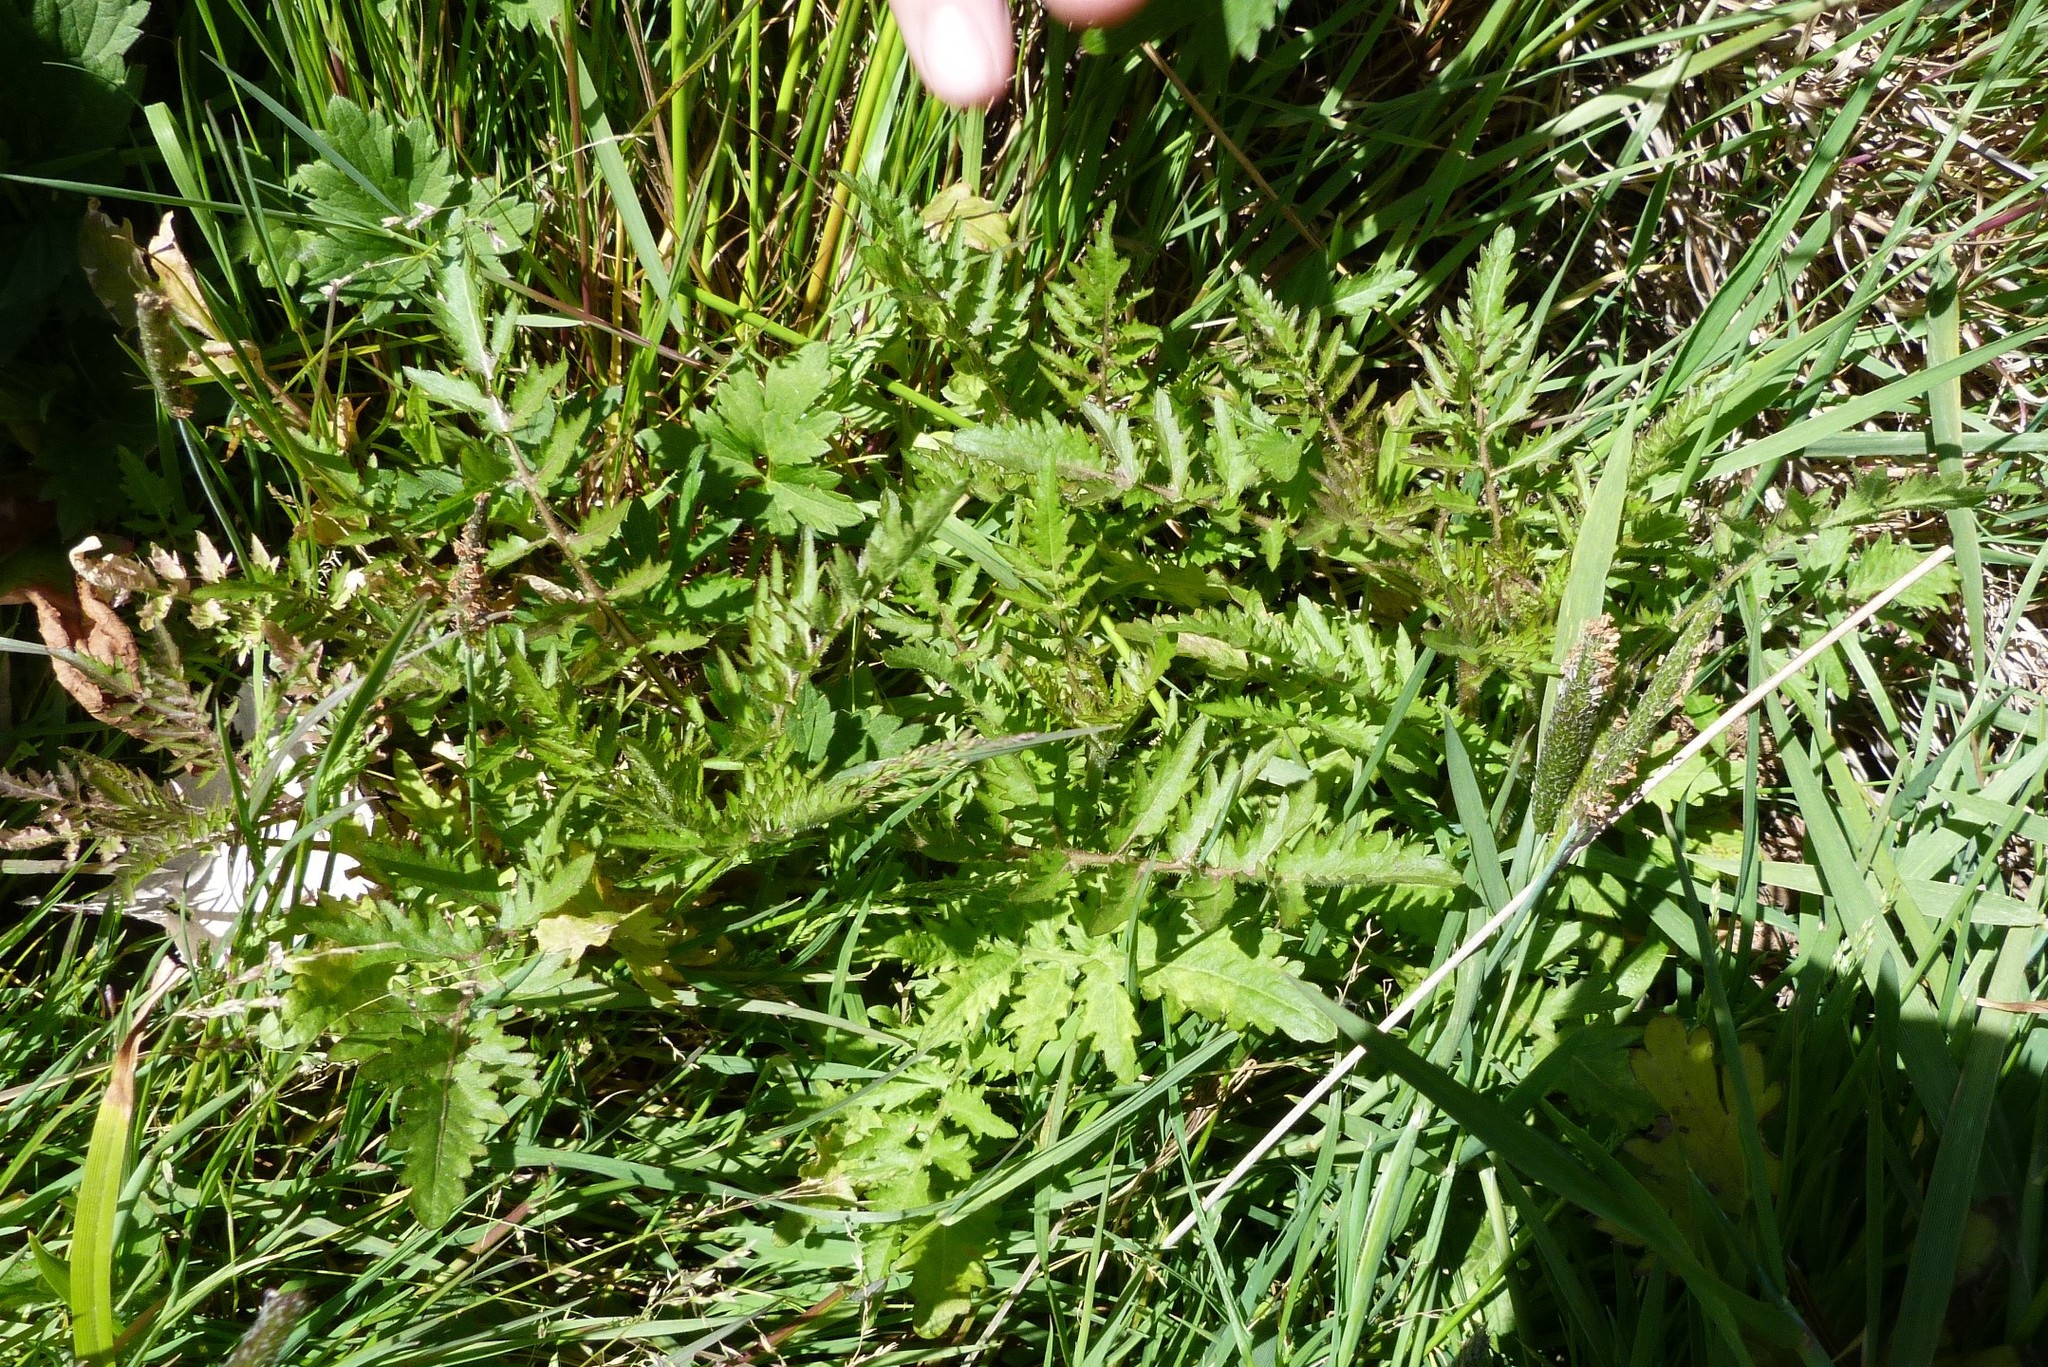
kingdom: Plantae
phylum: Tracheophyta
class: Magnoliopsida
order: Brassicales
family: Brassicaceae
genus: Rorippa
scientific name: Rorippa palustris
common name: Marsh yellow-cress
